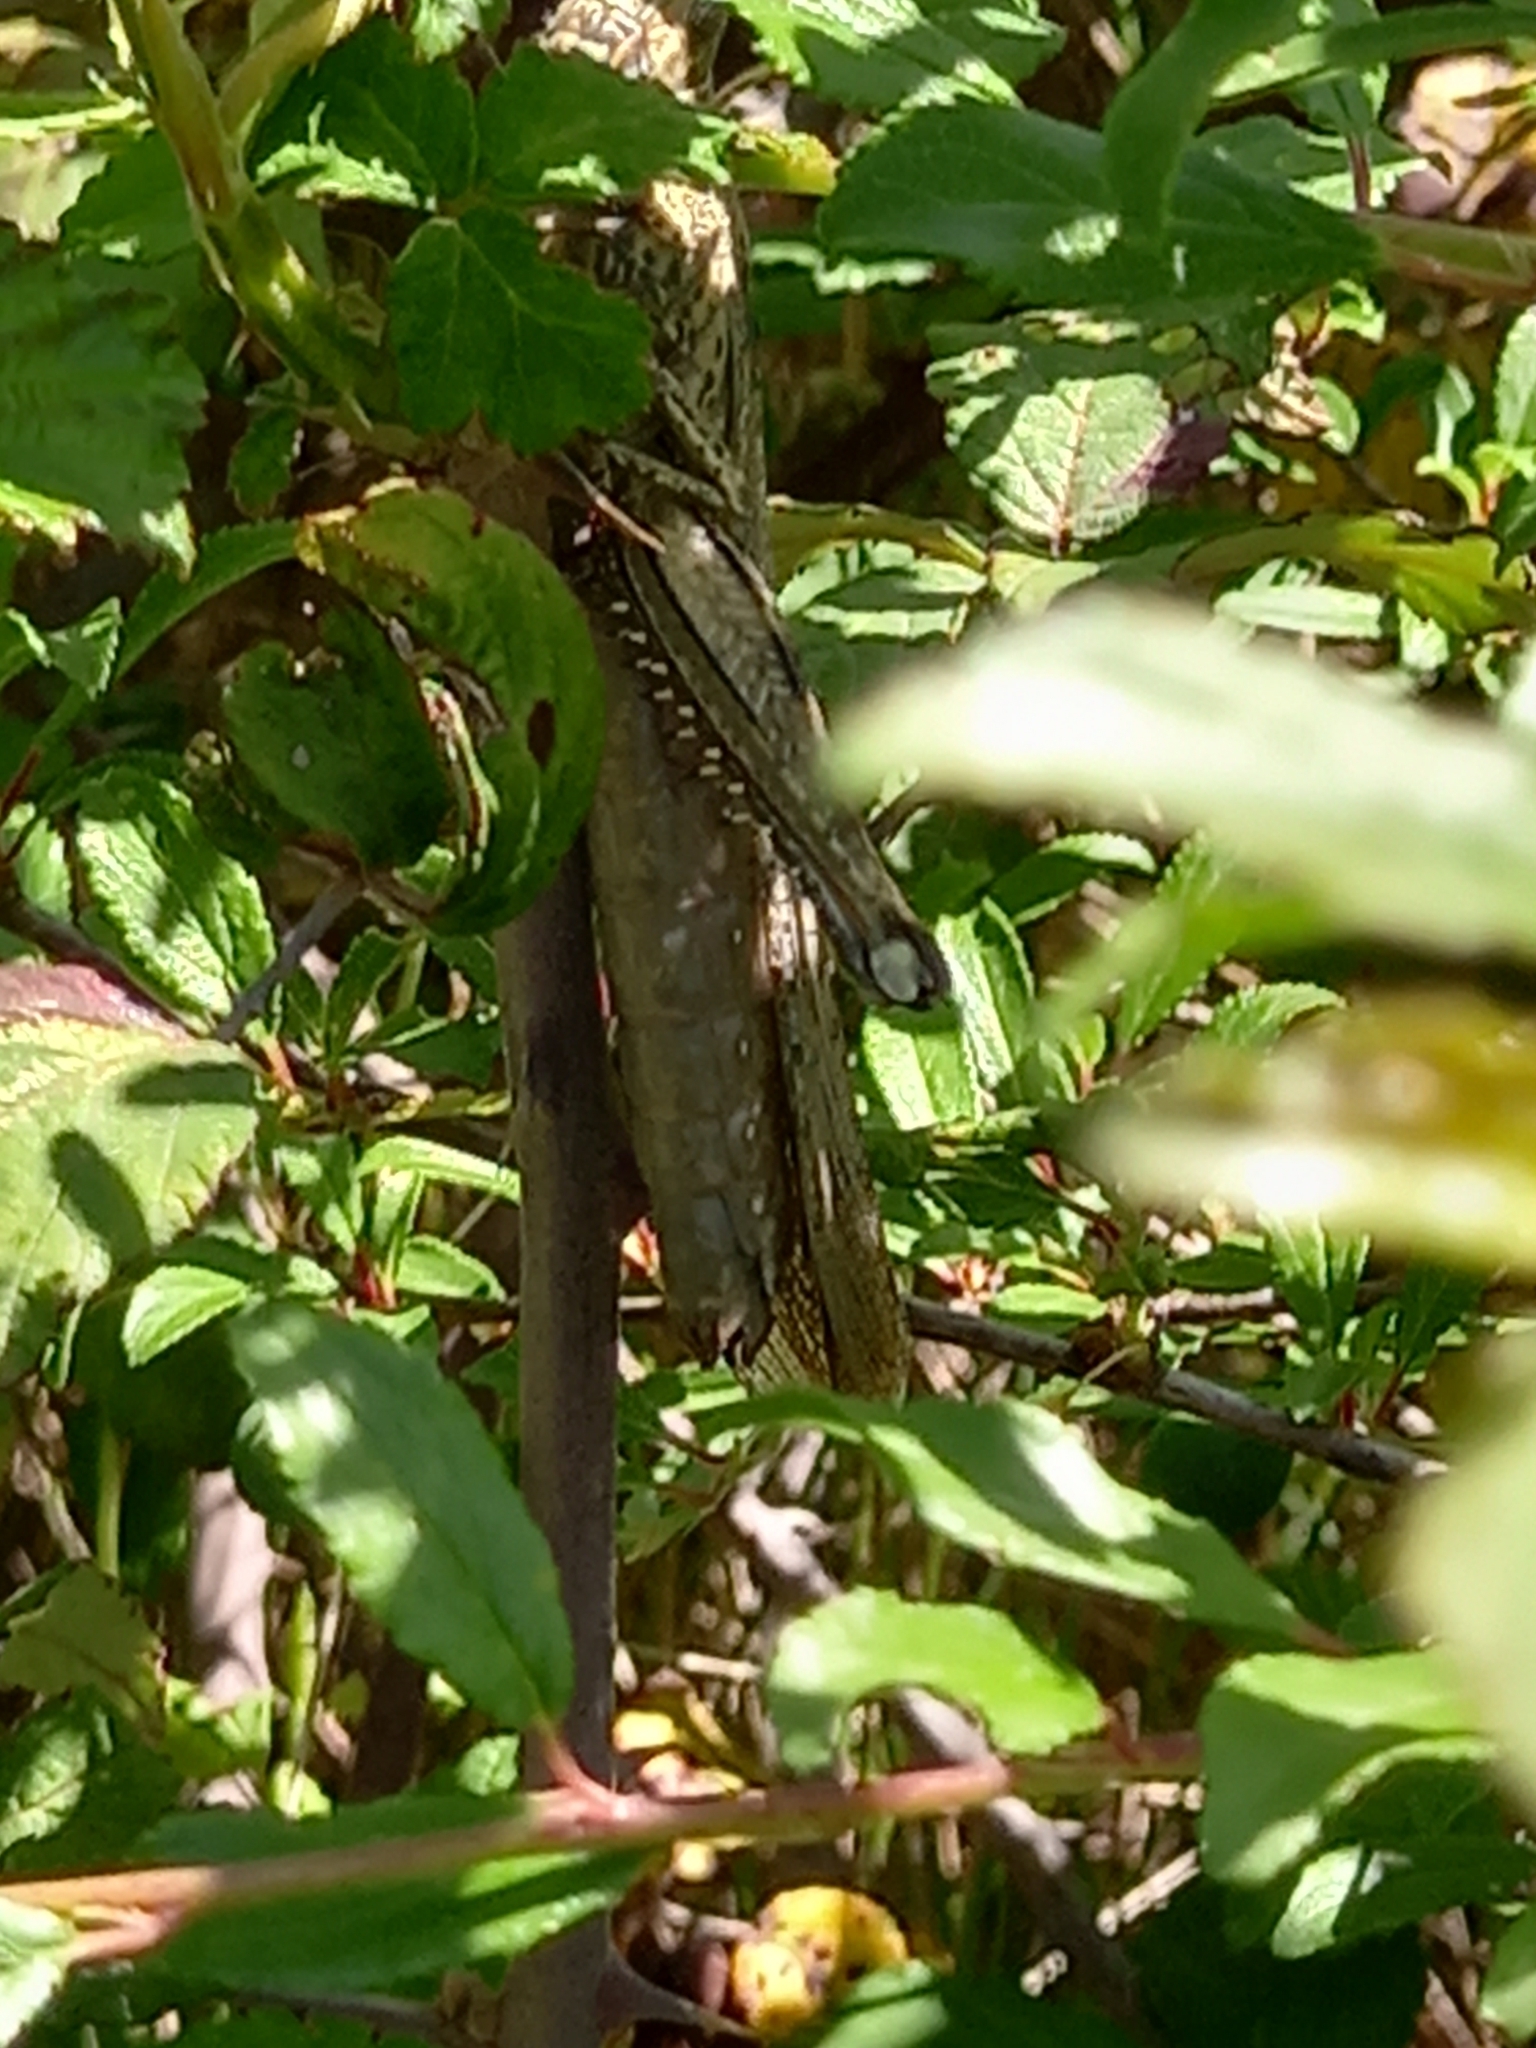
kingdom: Animalia
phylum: Arthropoda
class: Insecta
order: Orthoptera
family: Acrididae
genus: Anacridium
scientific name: Anacridium aegyptium
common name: Egyptian grasshopper
